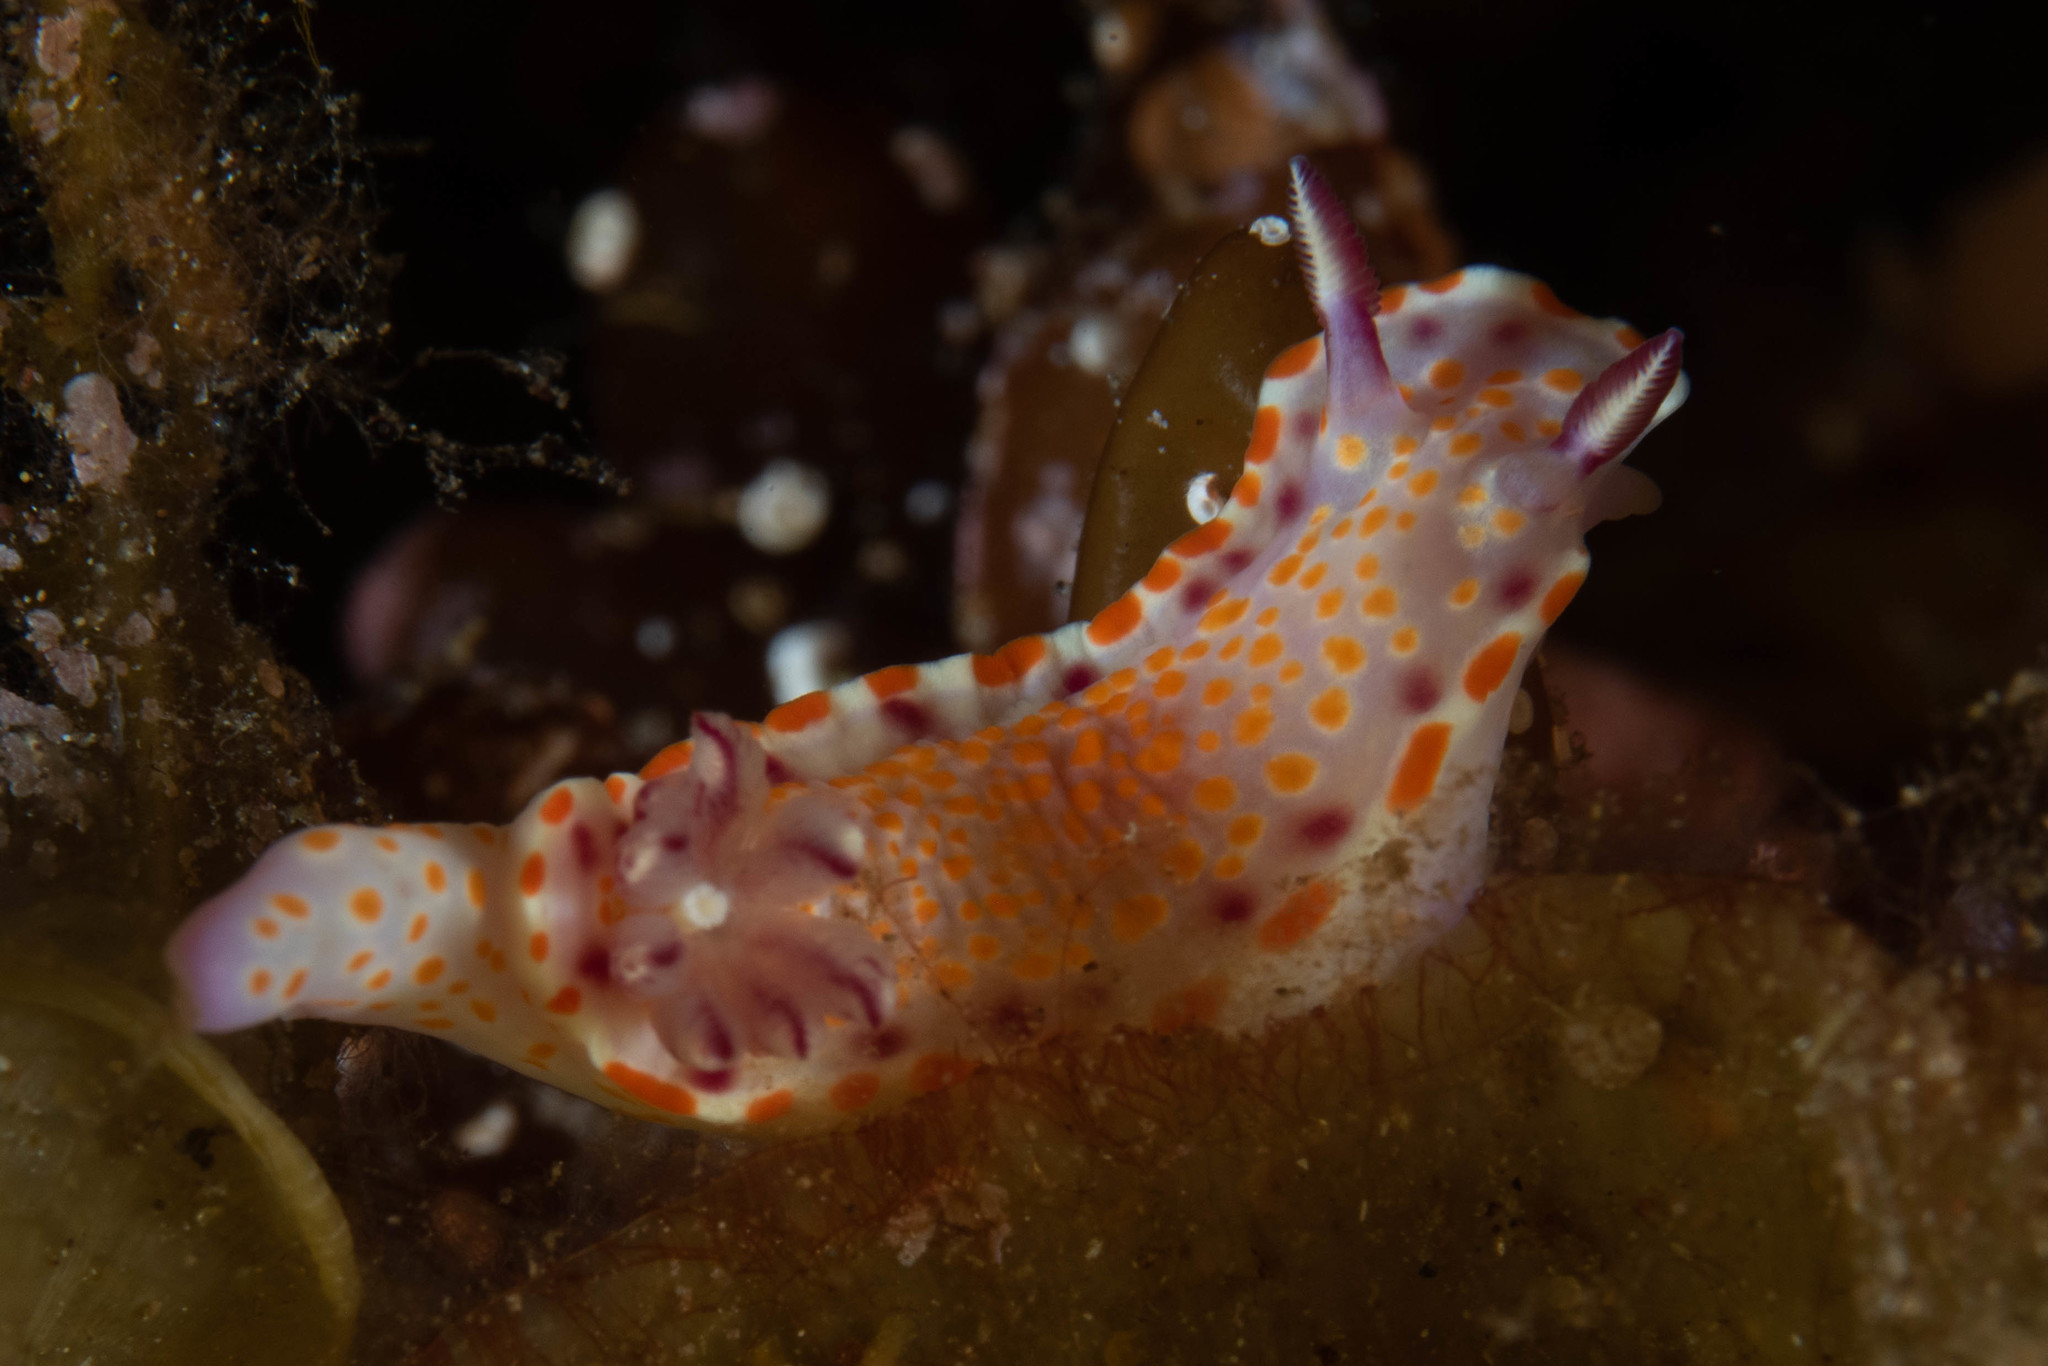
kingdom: Animalia
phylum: Mollusca
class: Gastropoda
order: Nudibranchia
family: Chromodorididae
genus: Ceratosoma
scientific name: Ceratosoma amoenum
